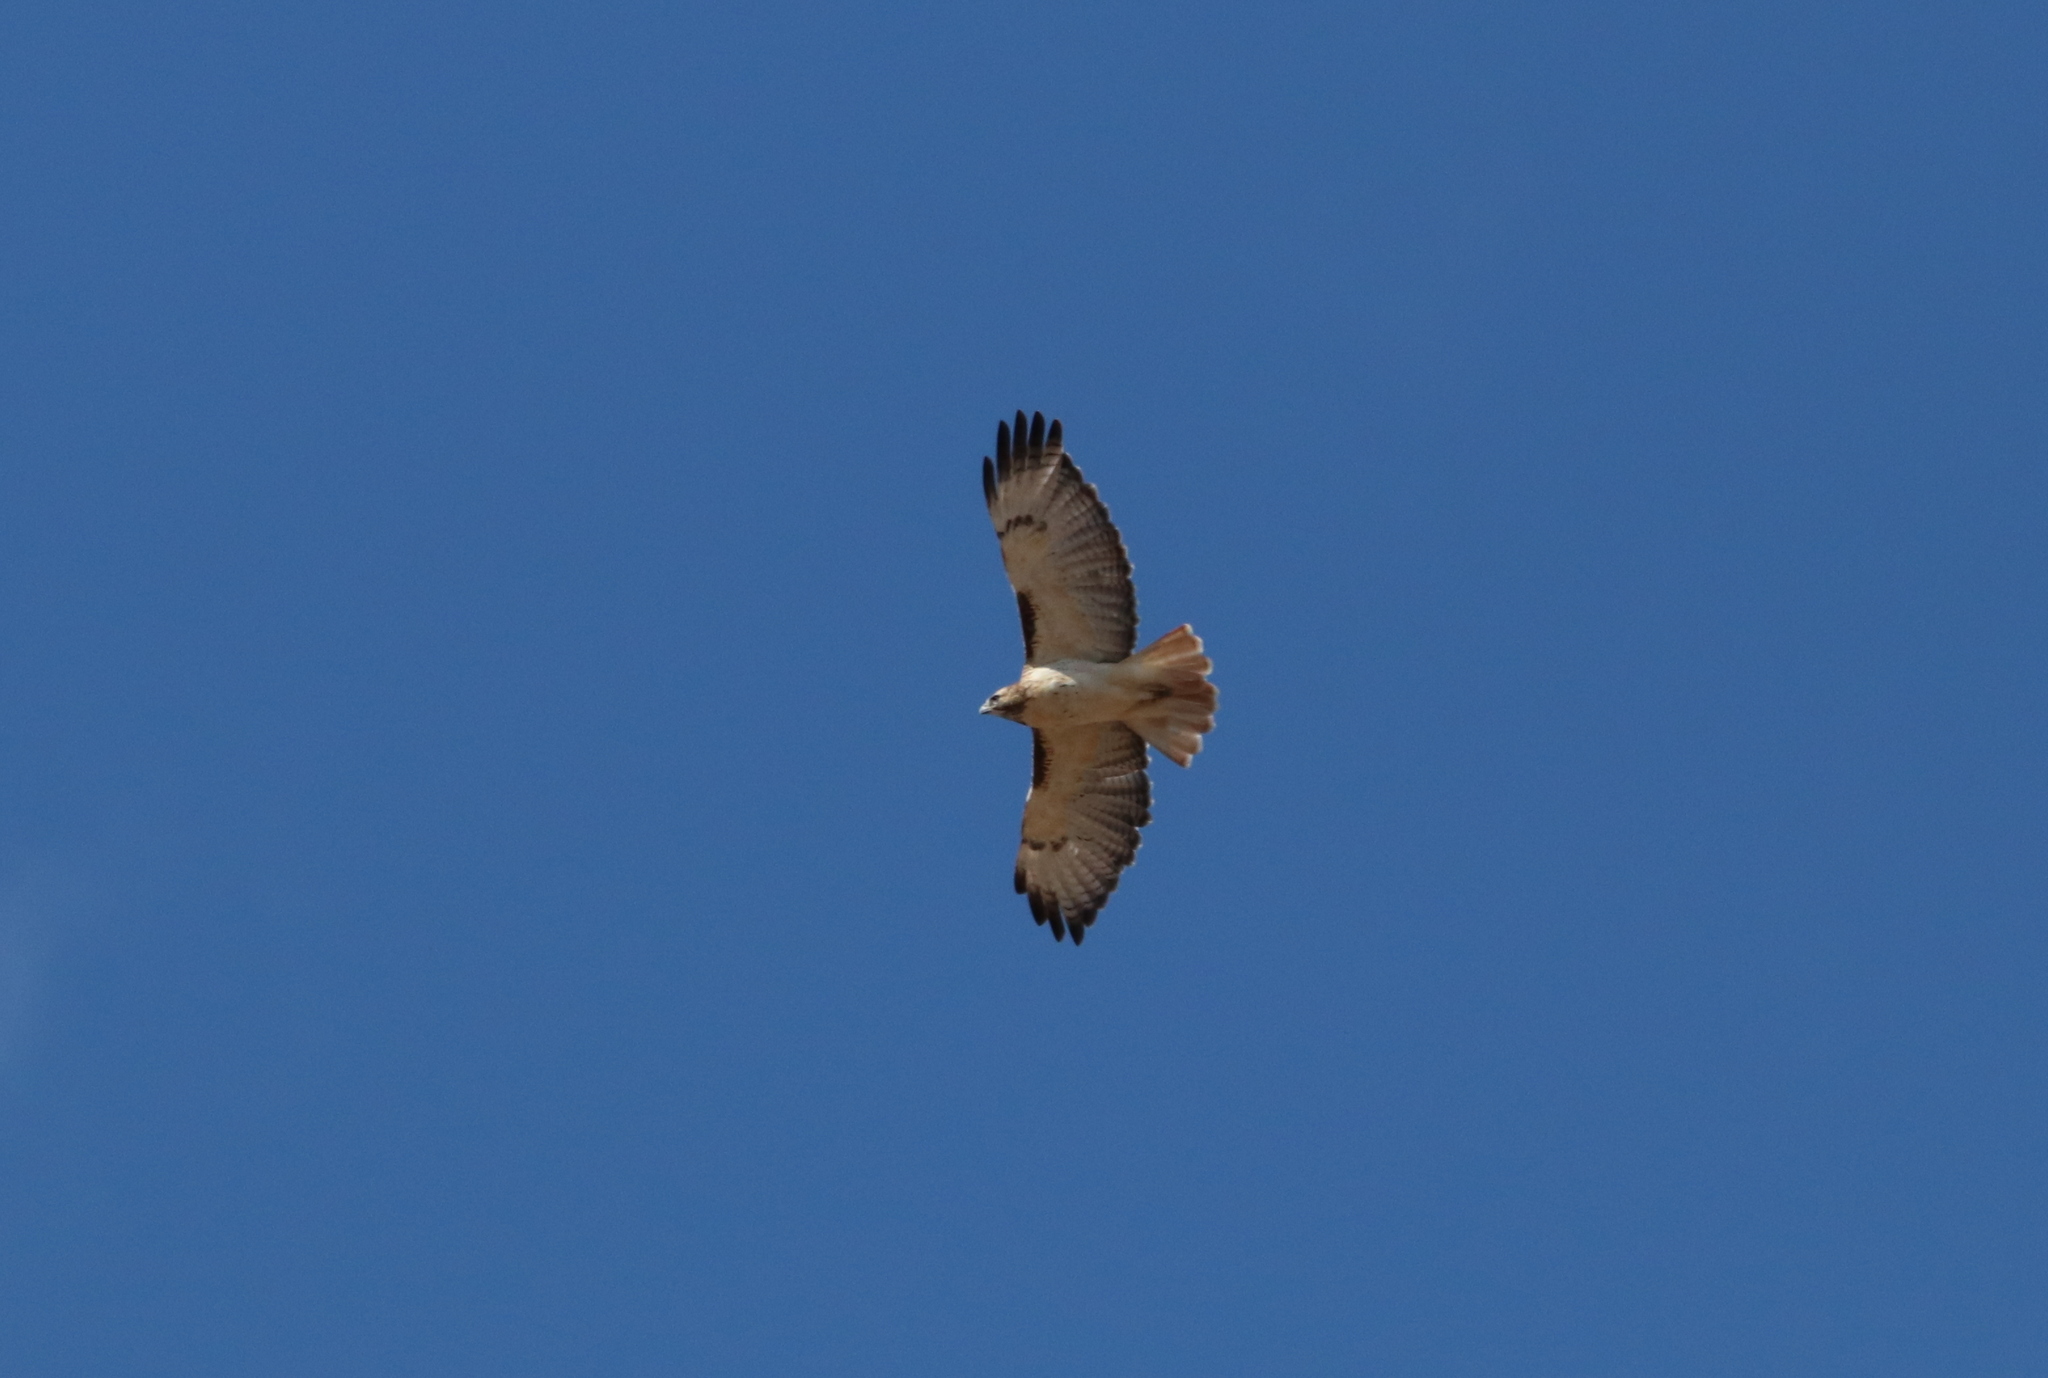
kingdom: Animalia
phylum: Chordata
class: Aves
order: Accipitriformes
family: Accipitridae
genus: Buteo
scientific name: Buteo jamaicensis
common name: Red-tailed hawk
